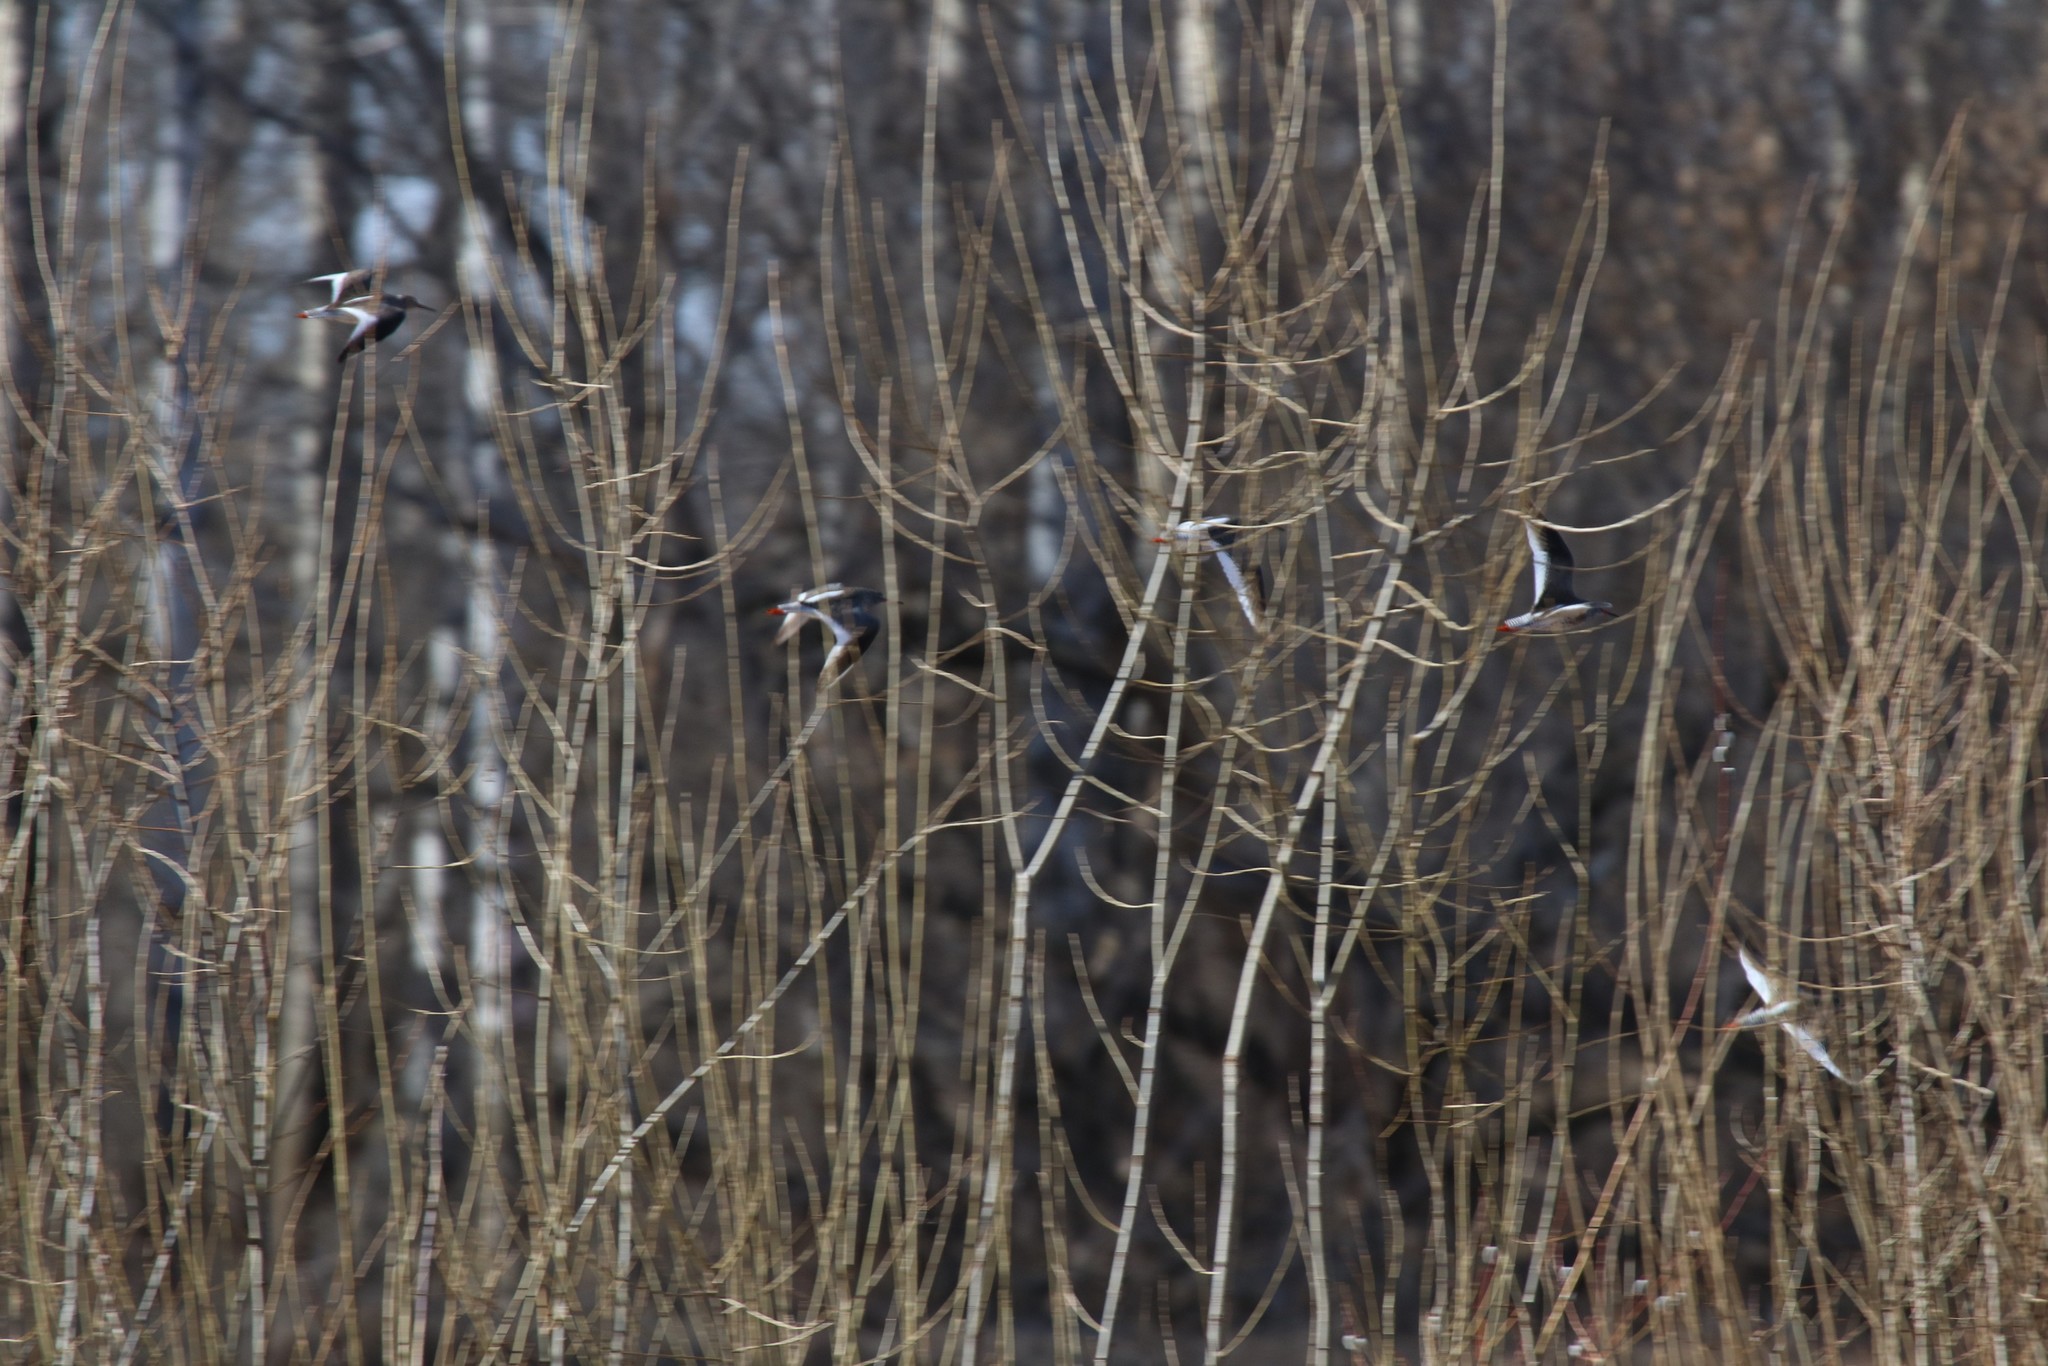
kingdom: Animalia
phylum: Chordata
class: Aves
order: Charadriiformes
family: Scolopacidae
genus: Tringa
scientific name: Tringa totanus
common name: Common redshank
